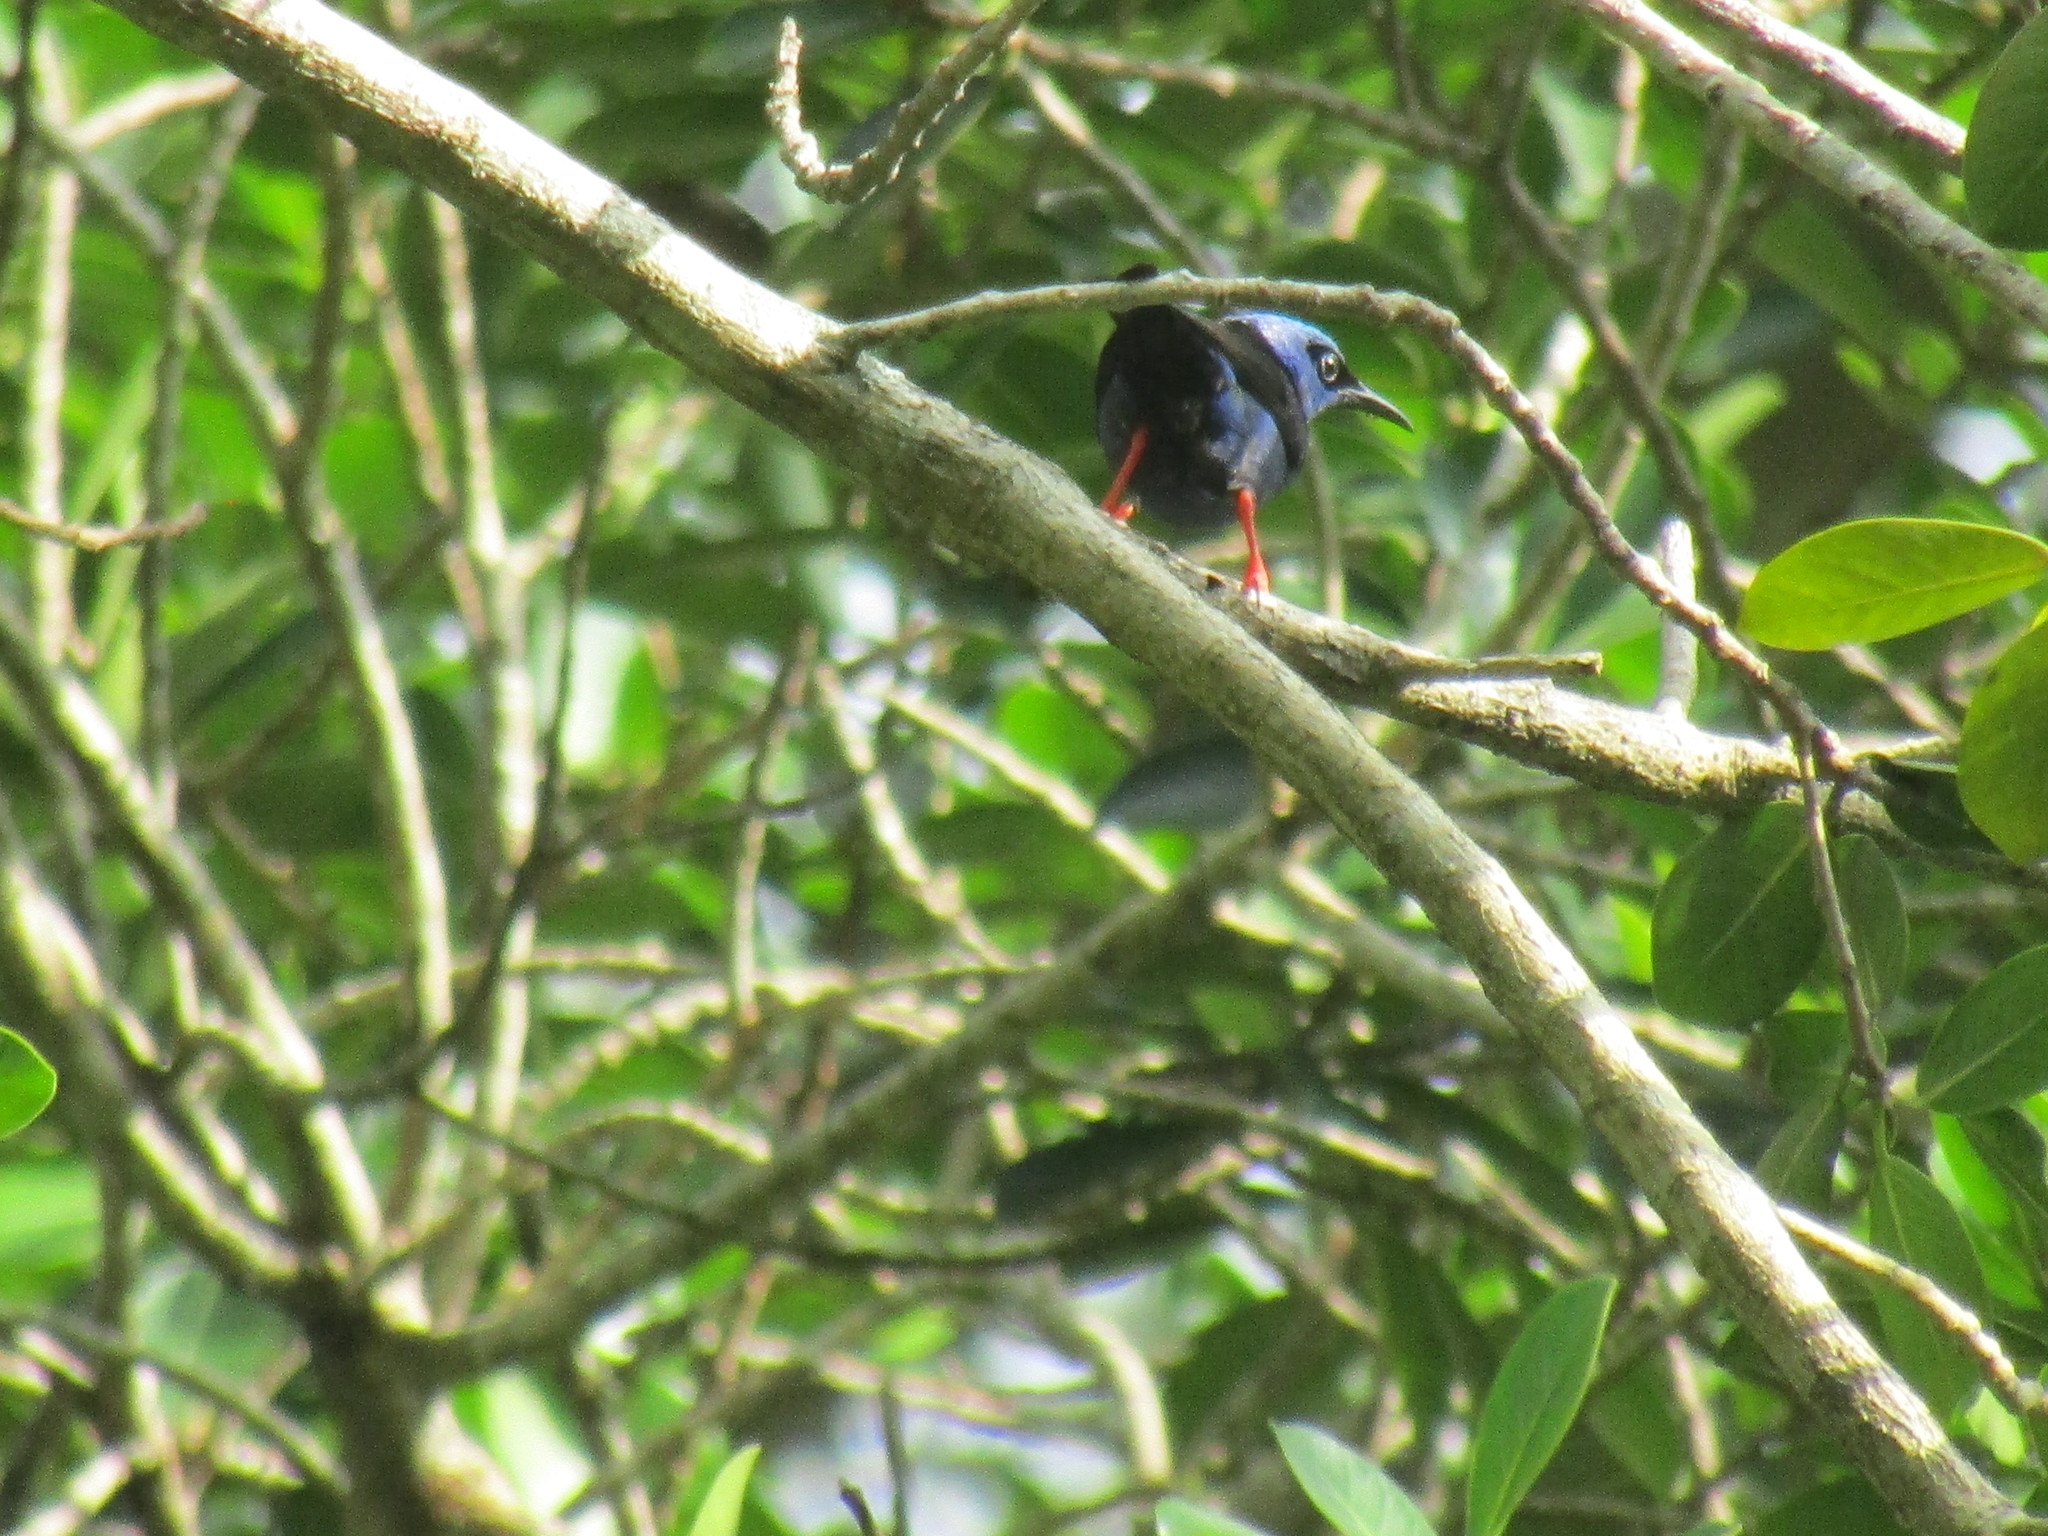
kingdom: Animalia
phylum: Chordata
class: Aves
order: Passeriformes
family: Thraupidae
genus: Cyanerpes
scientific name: Cyanerpes cyaneus
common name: Red-legged honeycreeper
